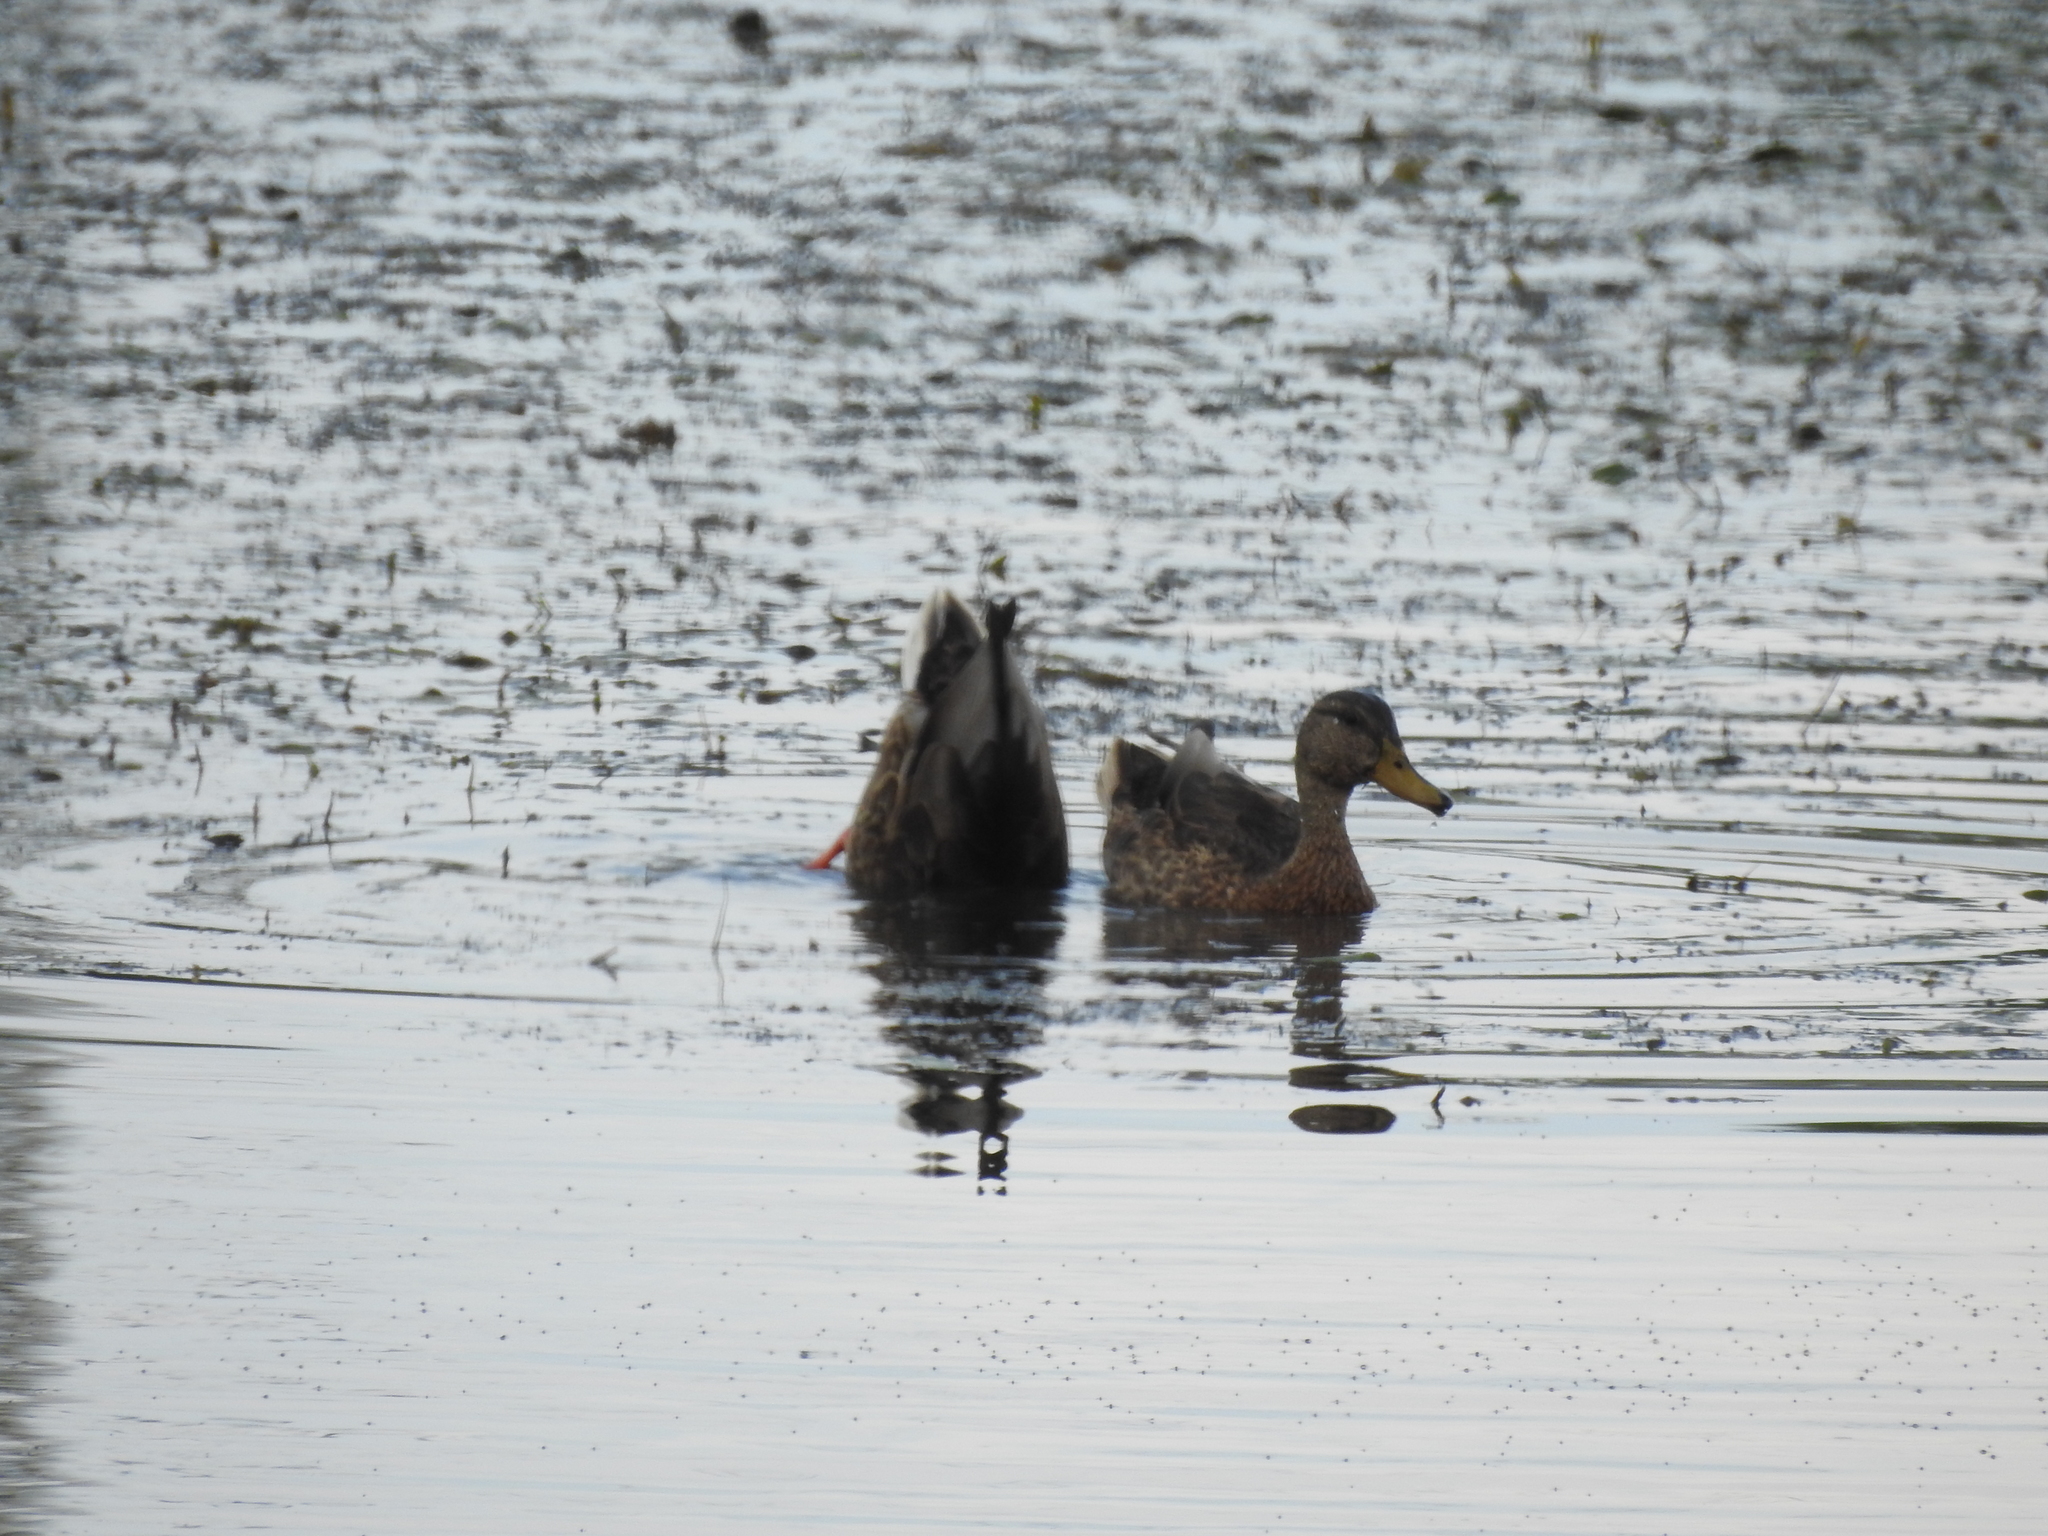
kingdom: Animalia
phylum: Chordata
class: Aves
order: Anseriformes
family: Anatidae
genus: Anas
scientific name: Anas platyrhynchos
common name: Mallard
